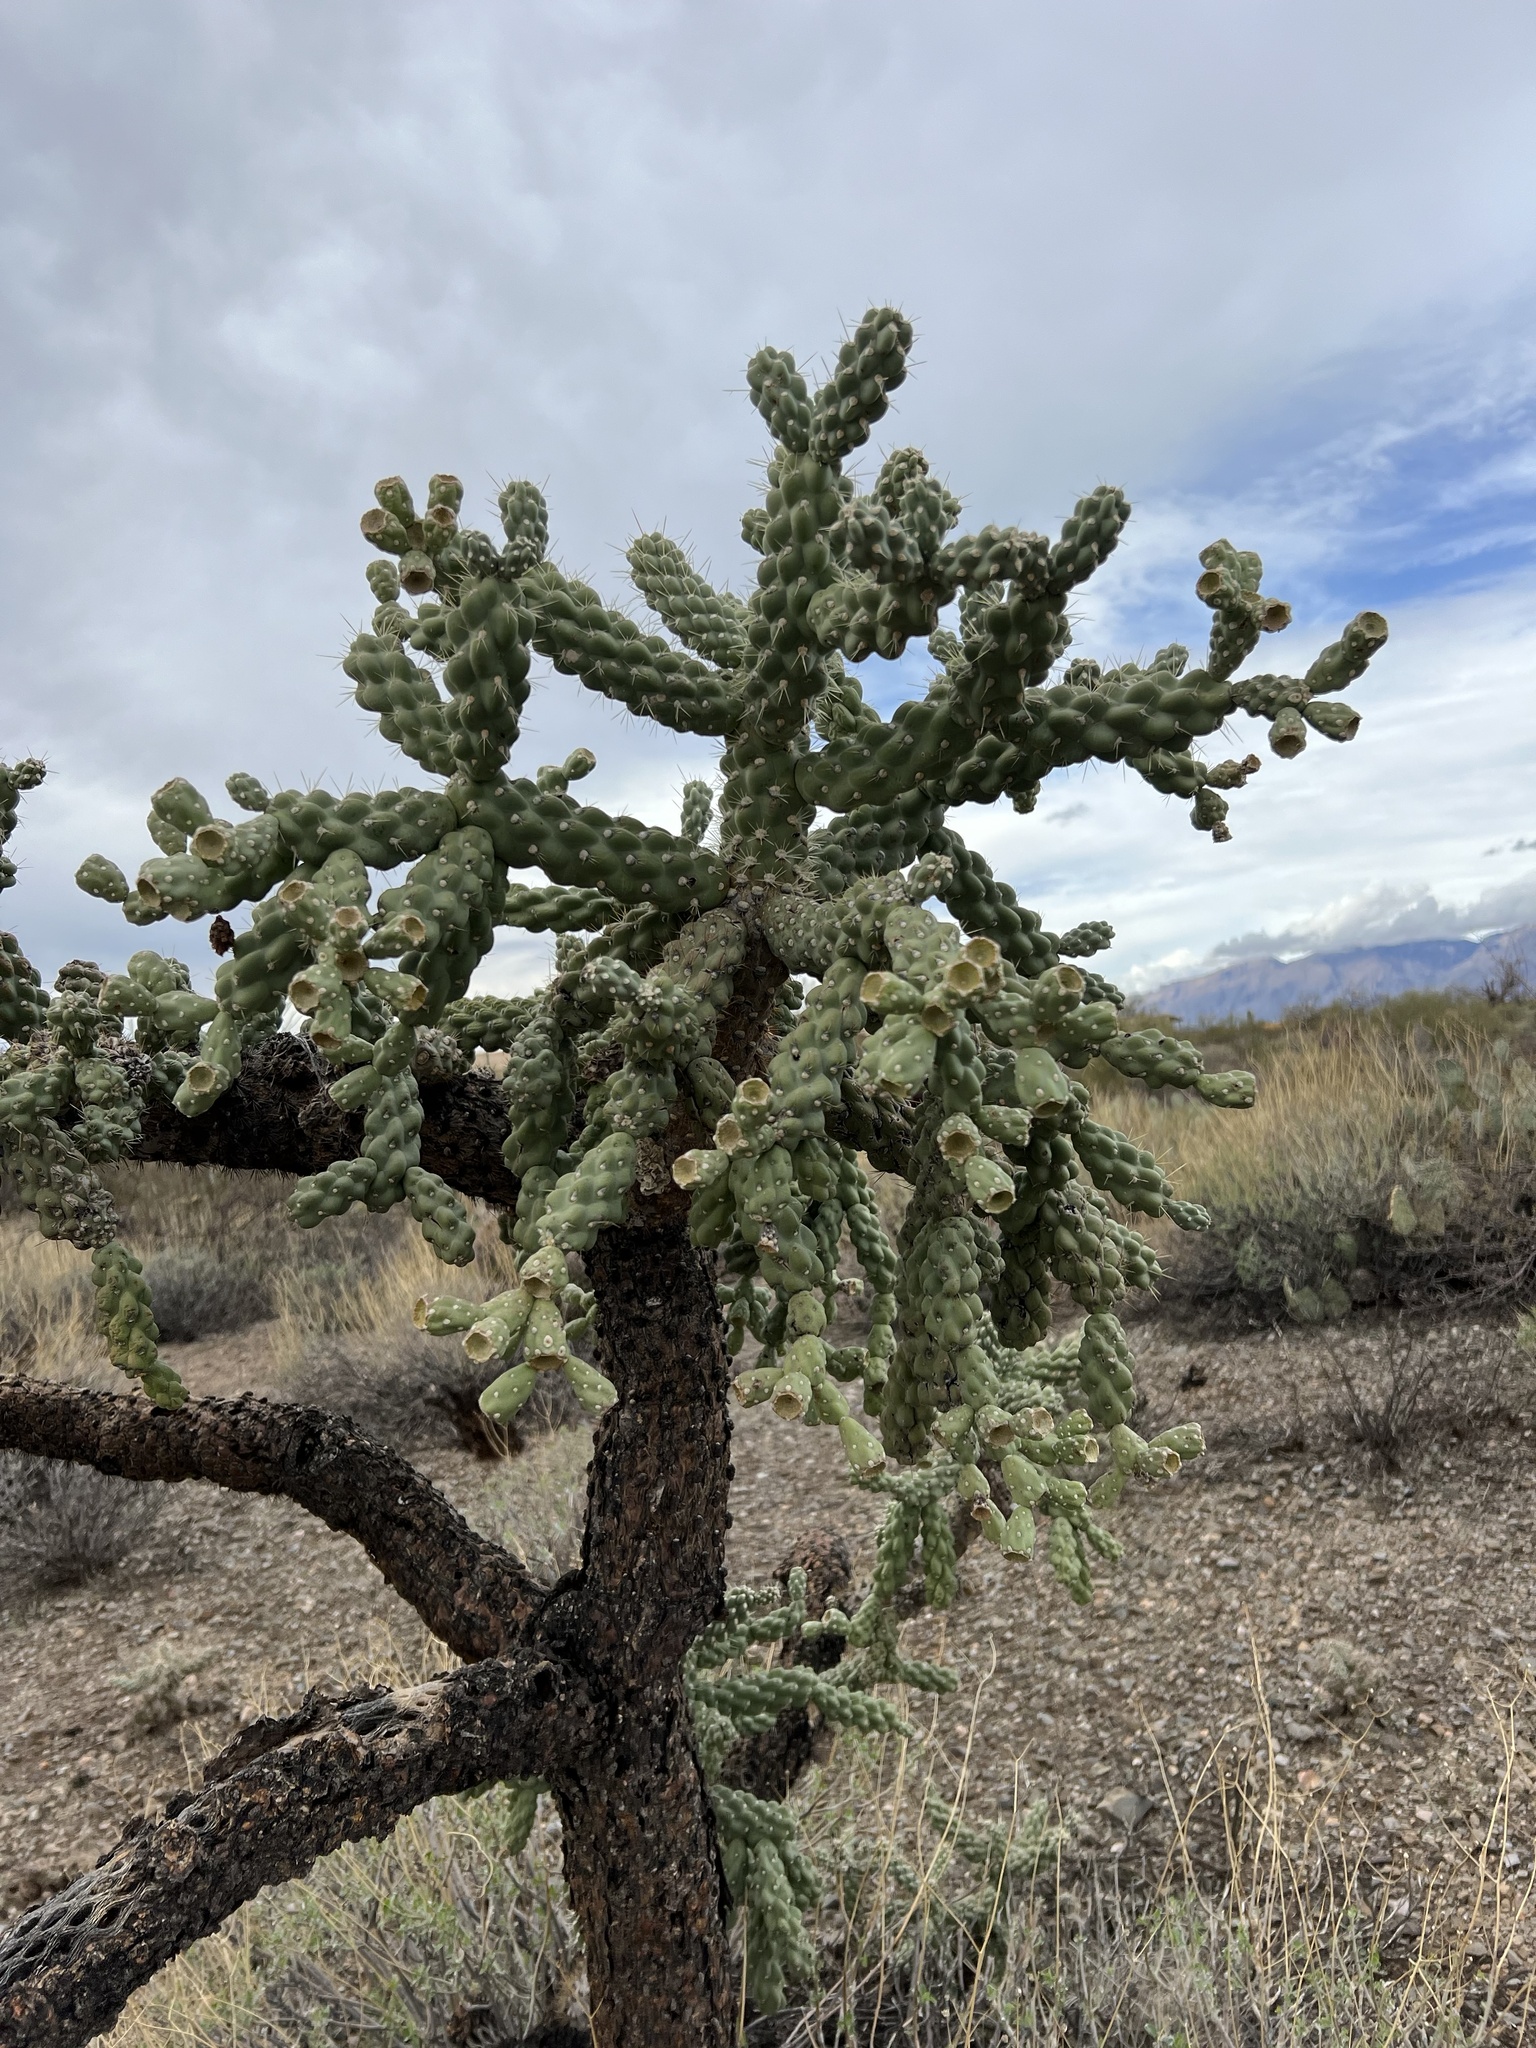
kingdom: Plantae
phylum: Tracheophyta
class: Magnoliopsida
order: Caryophyllales
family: Cactaceae
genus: Cylindropuntia
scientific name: Cylindropuntia fulgida
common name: Jumping cholla
